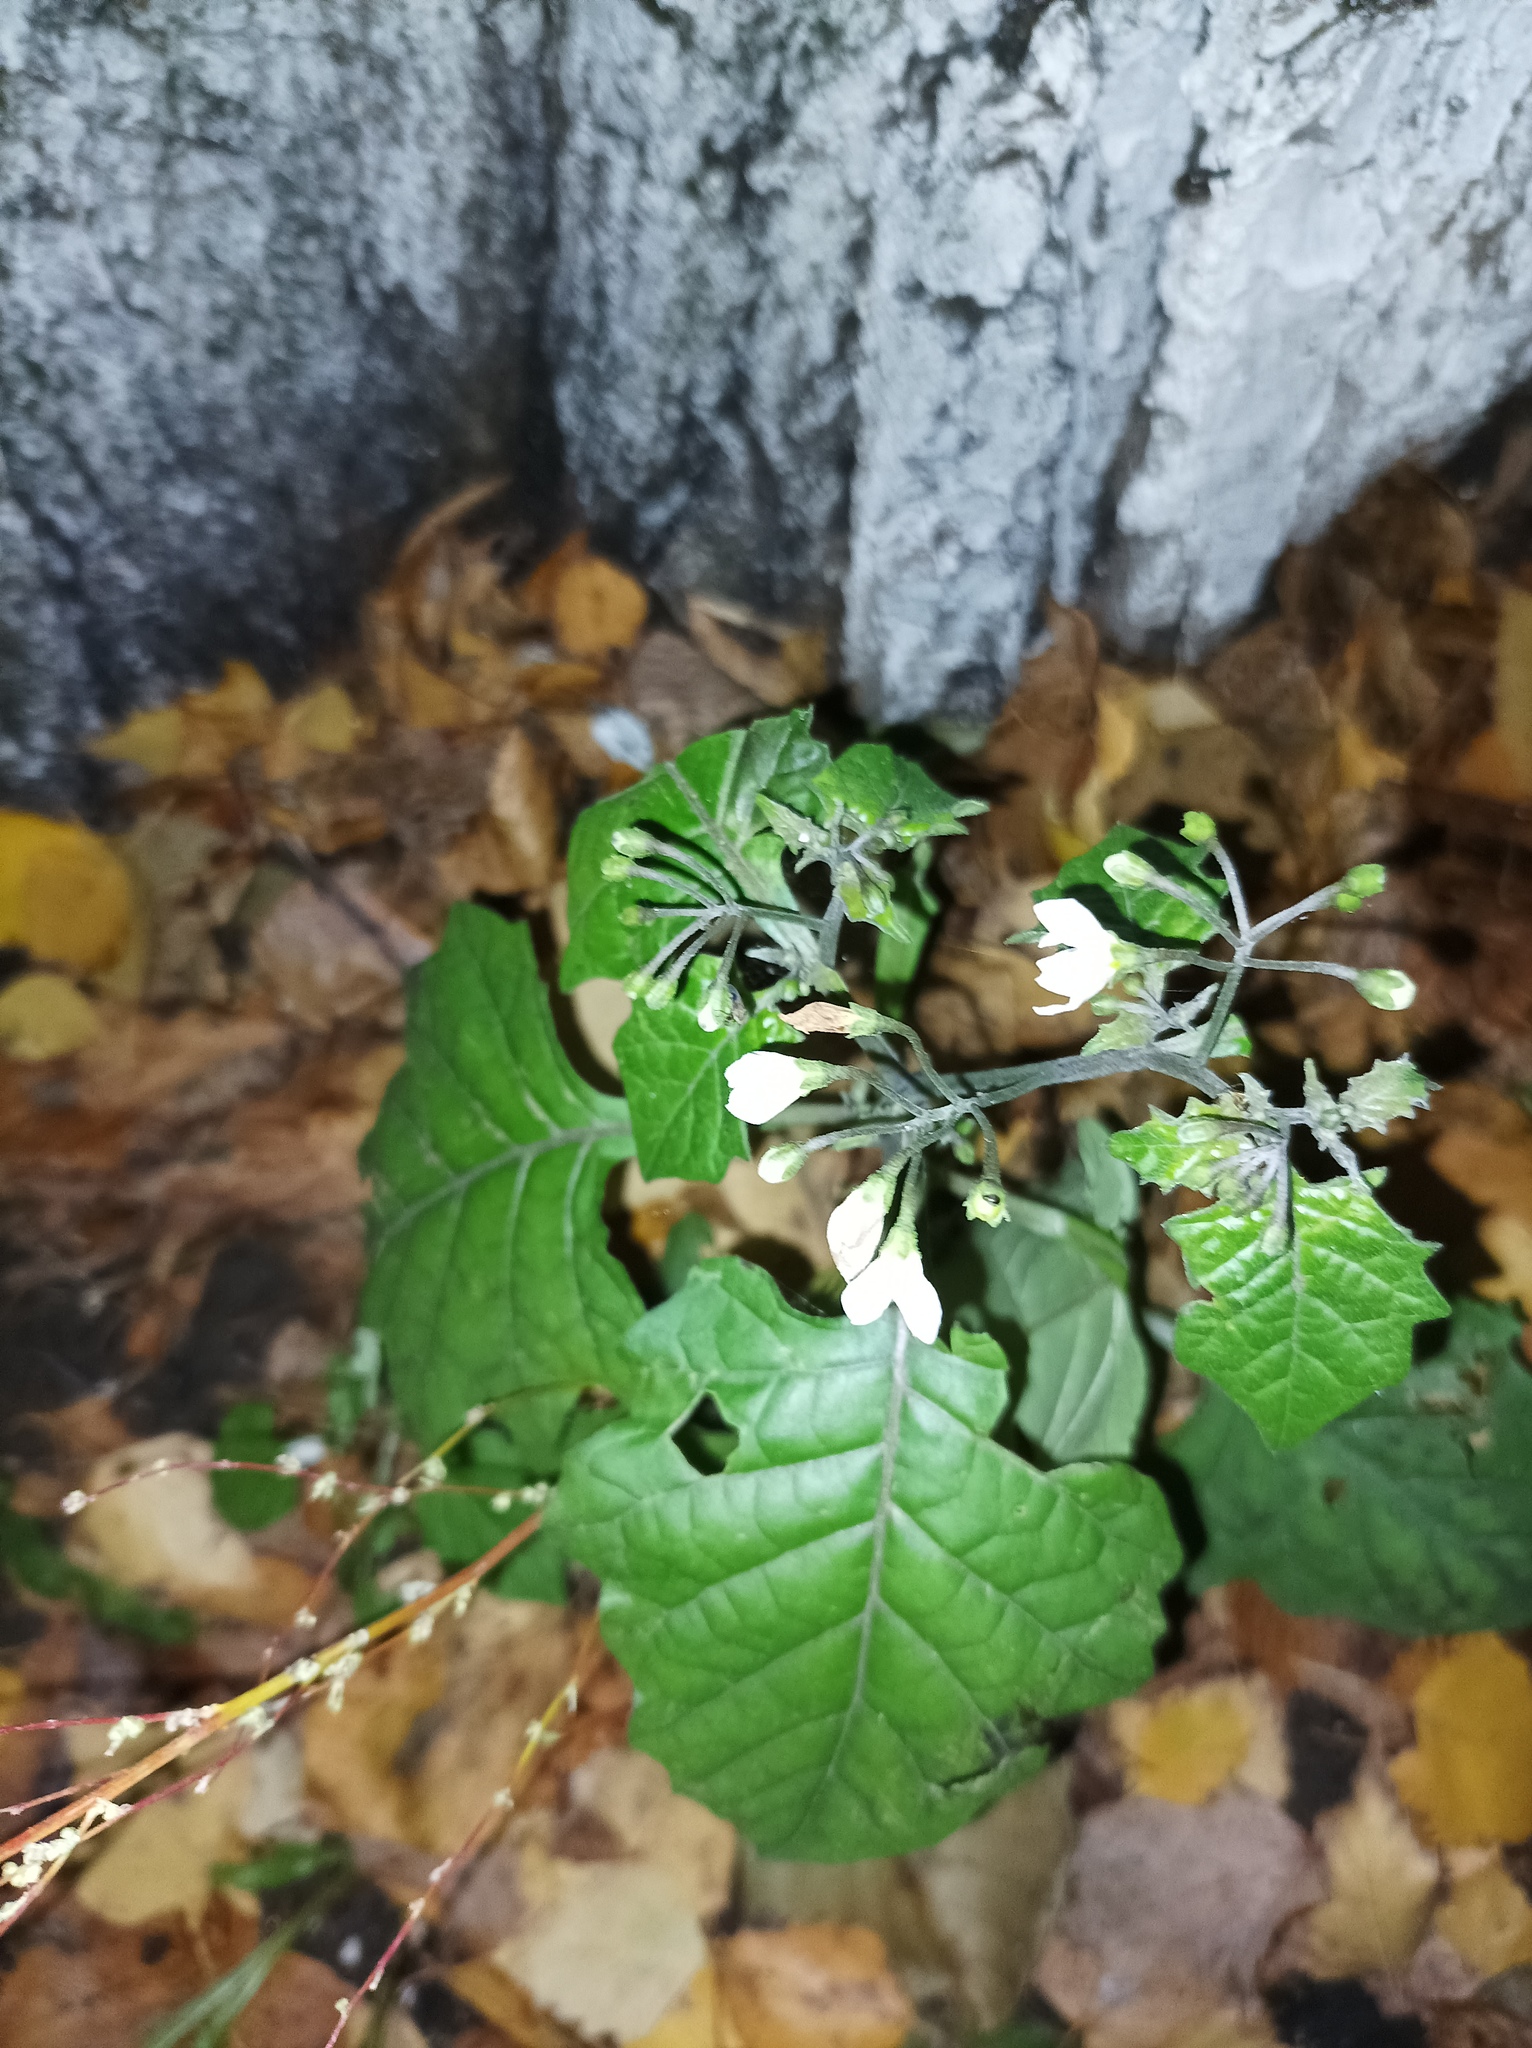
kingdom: Plantae
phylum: Tracheophyta
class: Magnoliopsida
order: Solanales
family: Solanaceae
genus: Solanum
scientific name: Solanum nigrum
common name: Black nightshade
